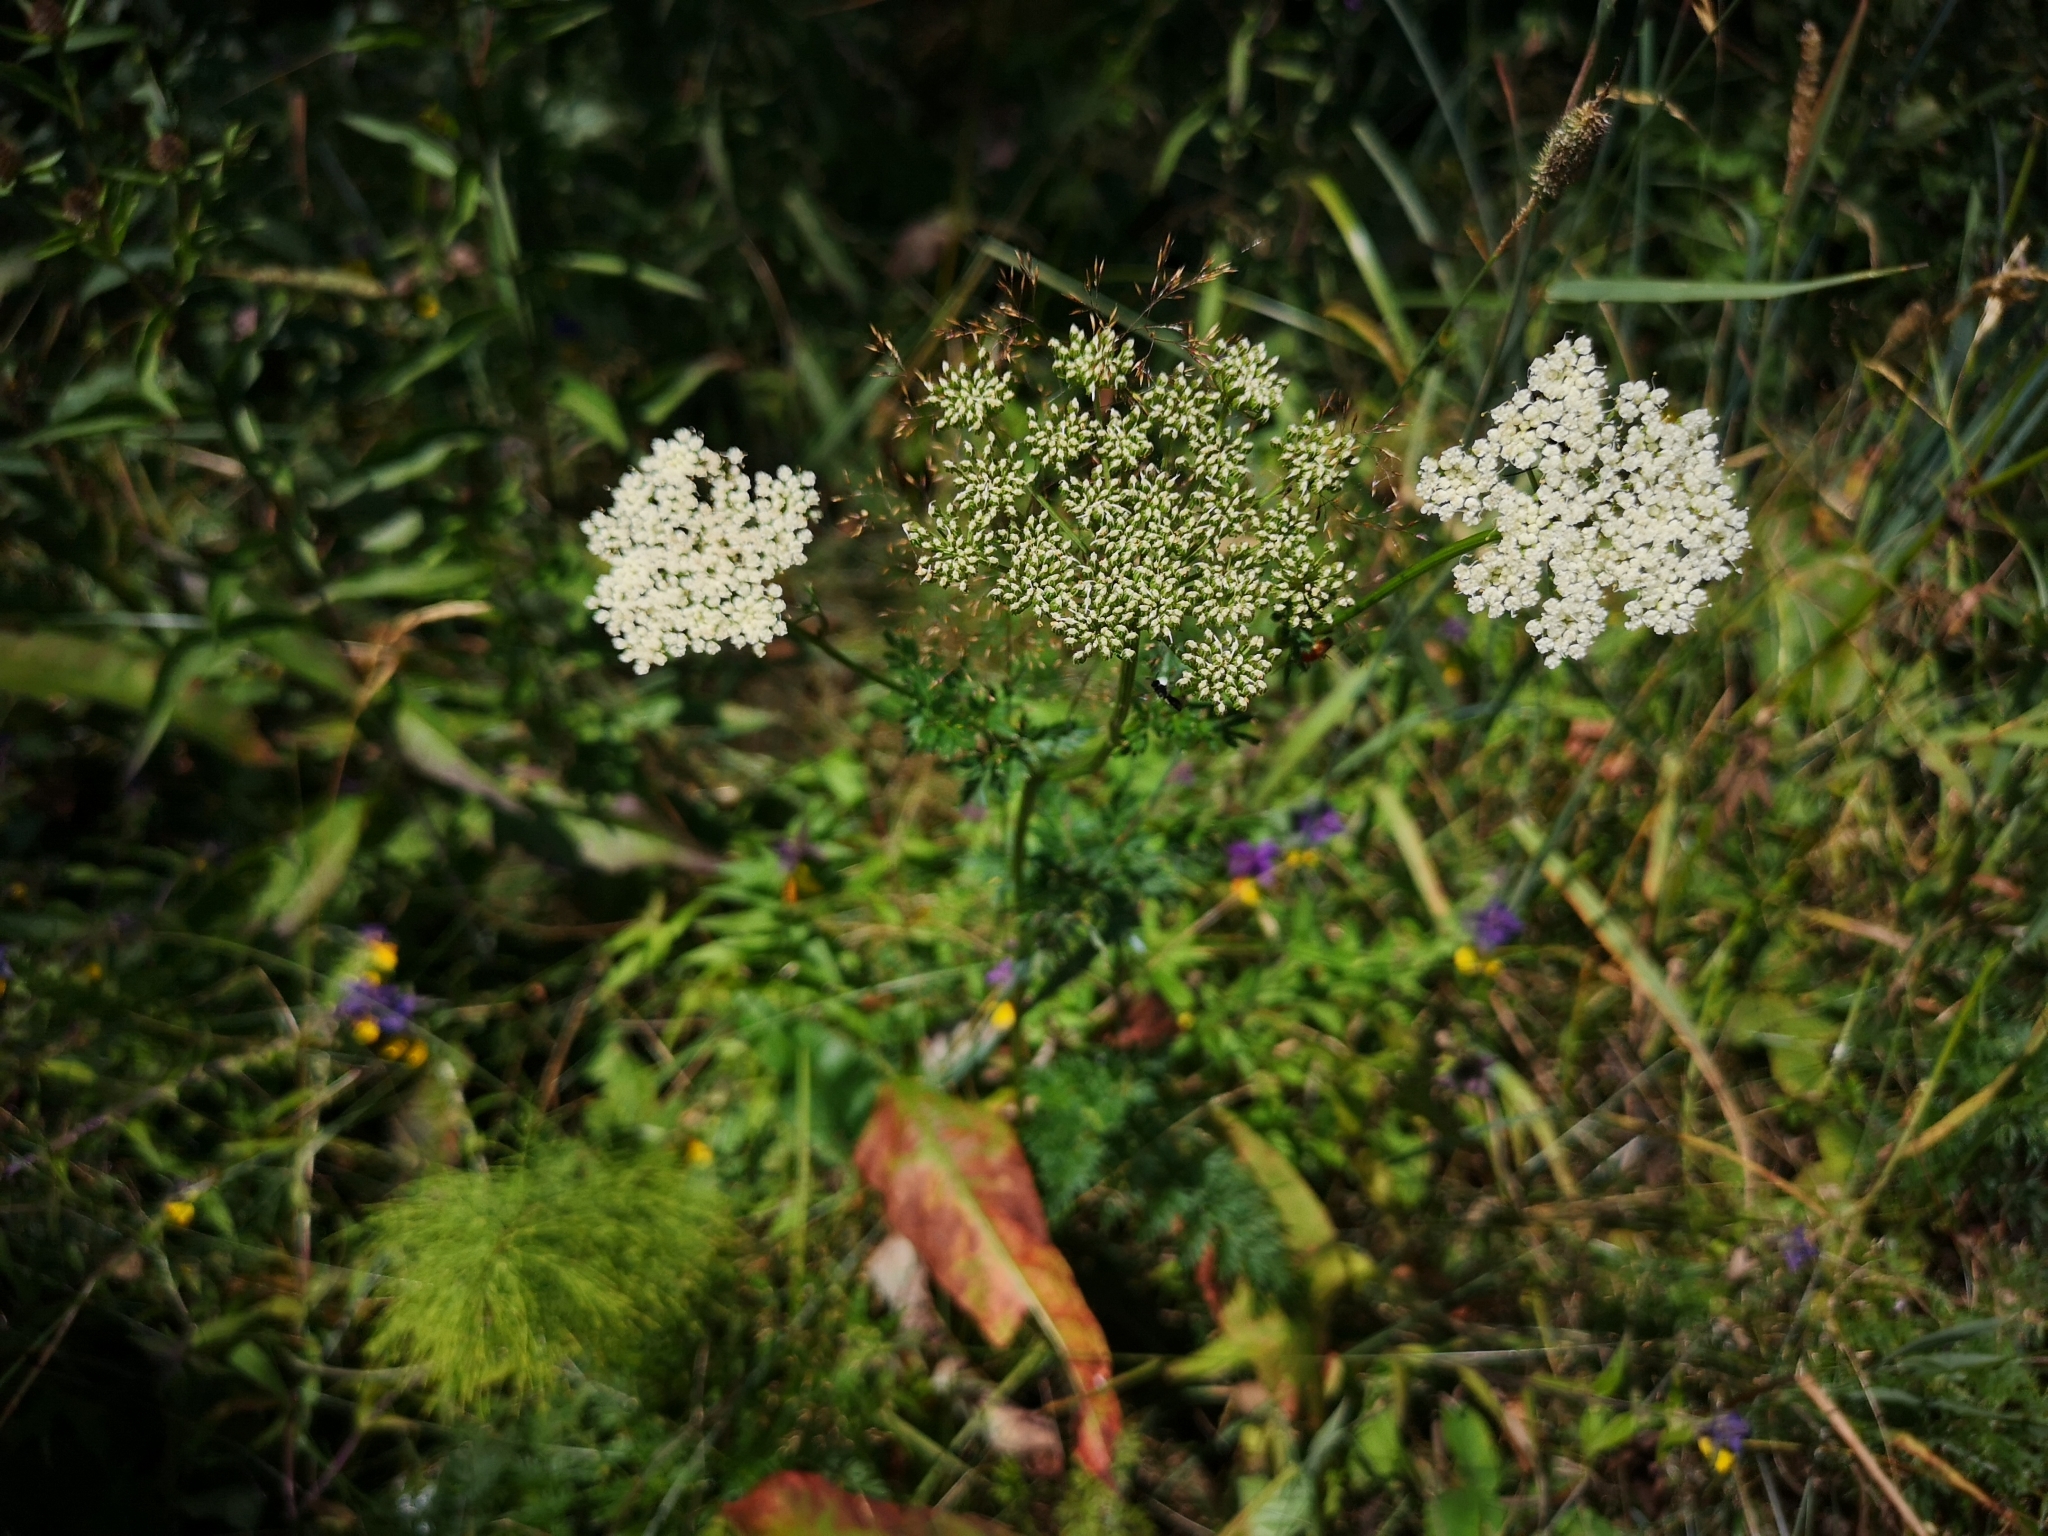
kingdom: Plantae
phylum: Tracheophyta
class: Magnoliopsida
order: Apiales
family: Apiaceae
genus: Selinum
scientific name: Selinum carvifolia
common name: Cambridge milk-parsley
